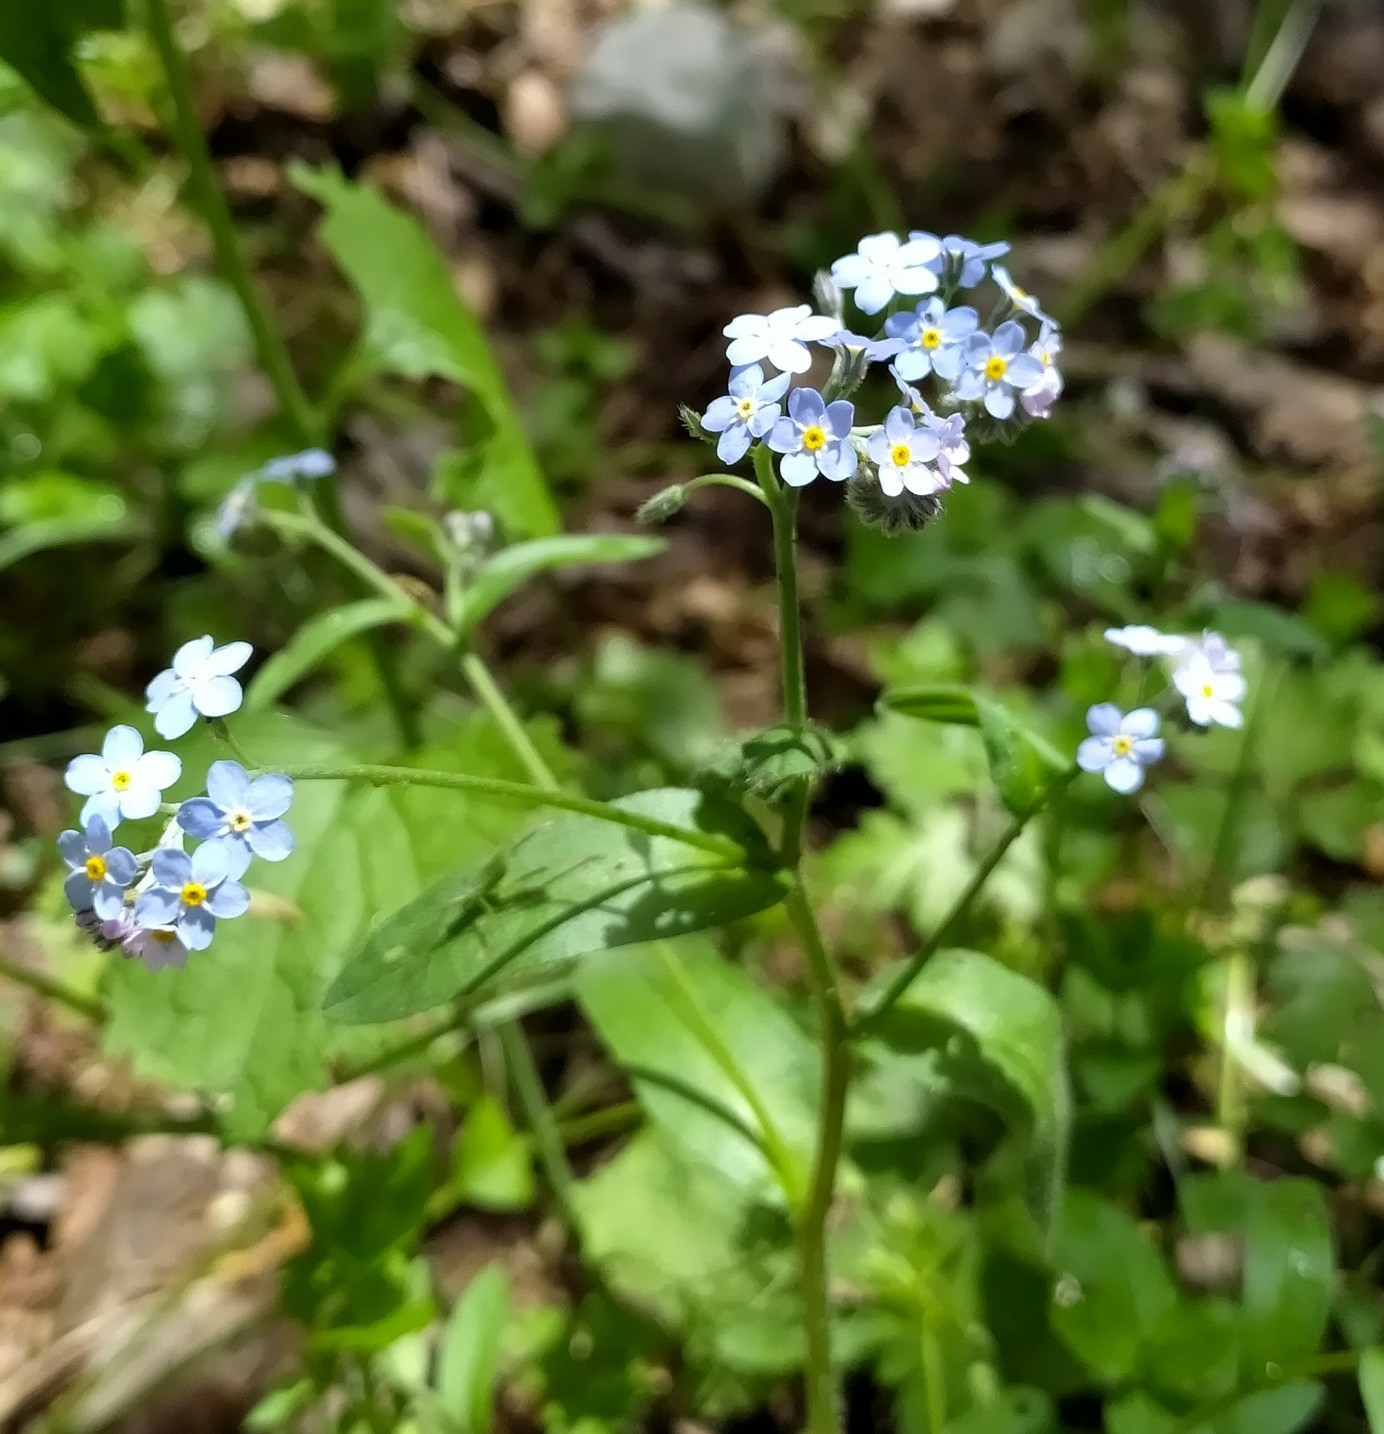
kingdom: Plantae
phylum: Tracheophyta
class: Magnoliopsida
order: Boraginales
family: Boraginaceae
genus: Myosotis
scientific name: Myosotis sylvatica
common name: Wood forget-me-not
